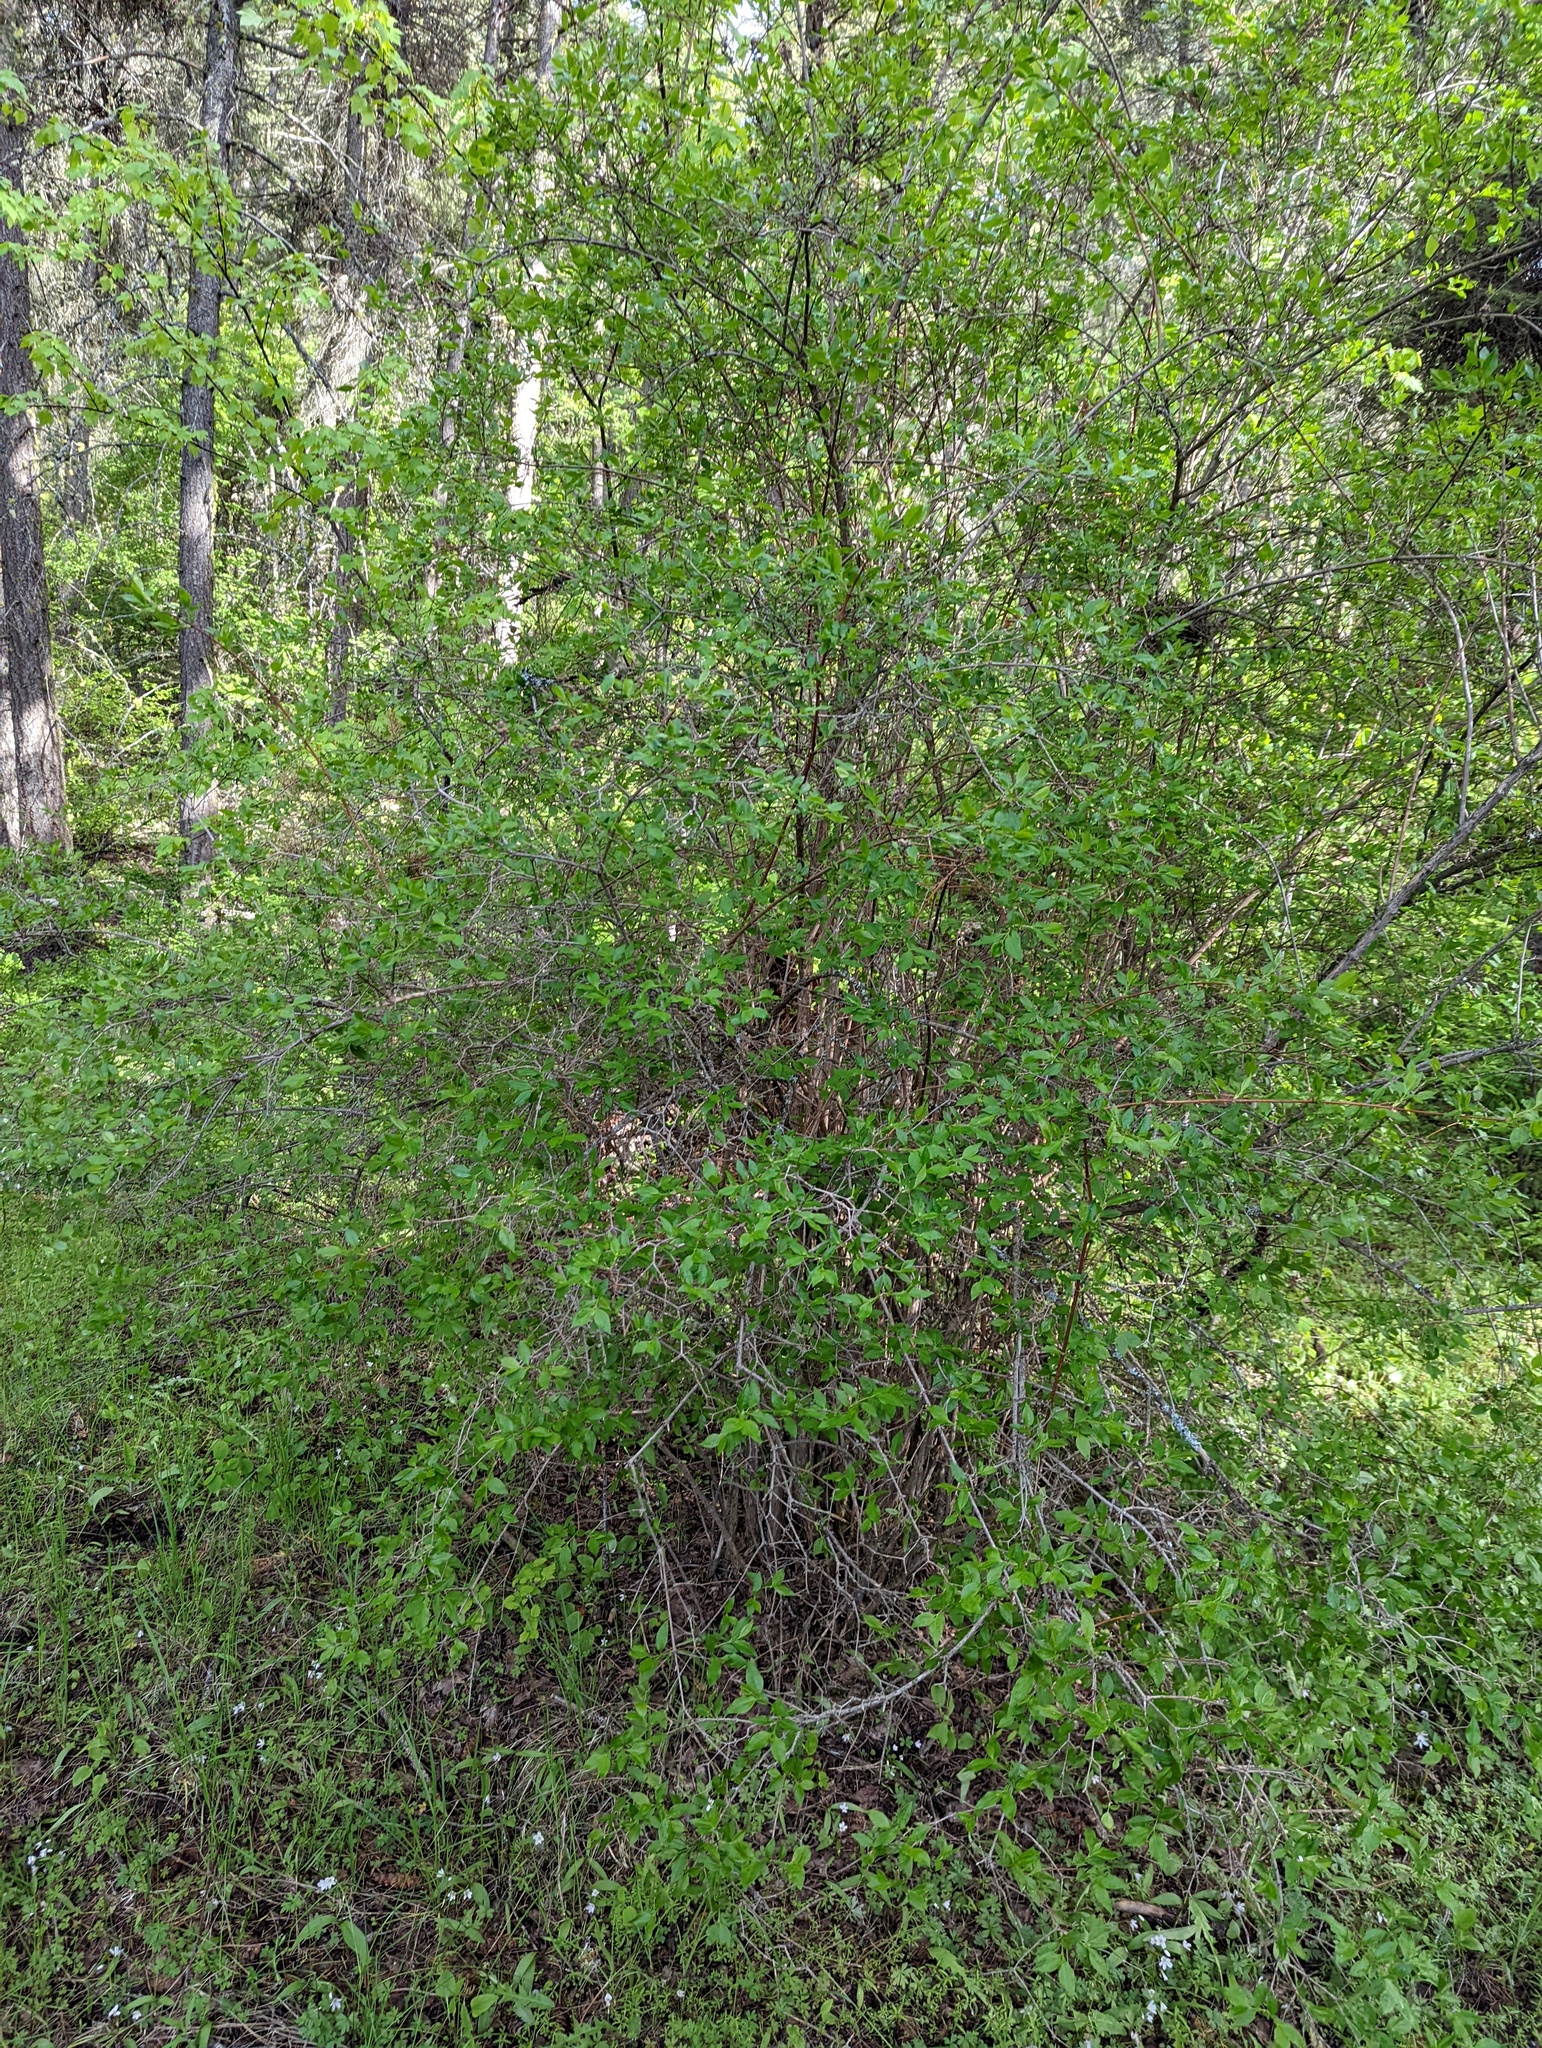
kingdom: Plantae
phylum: Tracheophyta
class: Magnoliopsida
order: Cornales
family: Hydrangeaceae
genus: Philadelphus
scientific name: Philadelphus lewisii
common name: Lewis's mock orange
